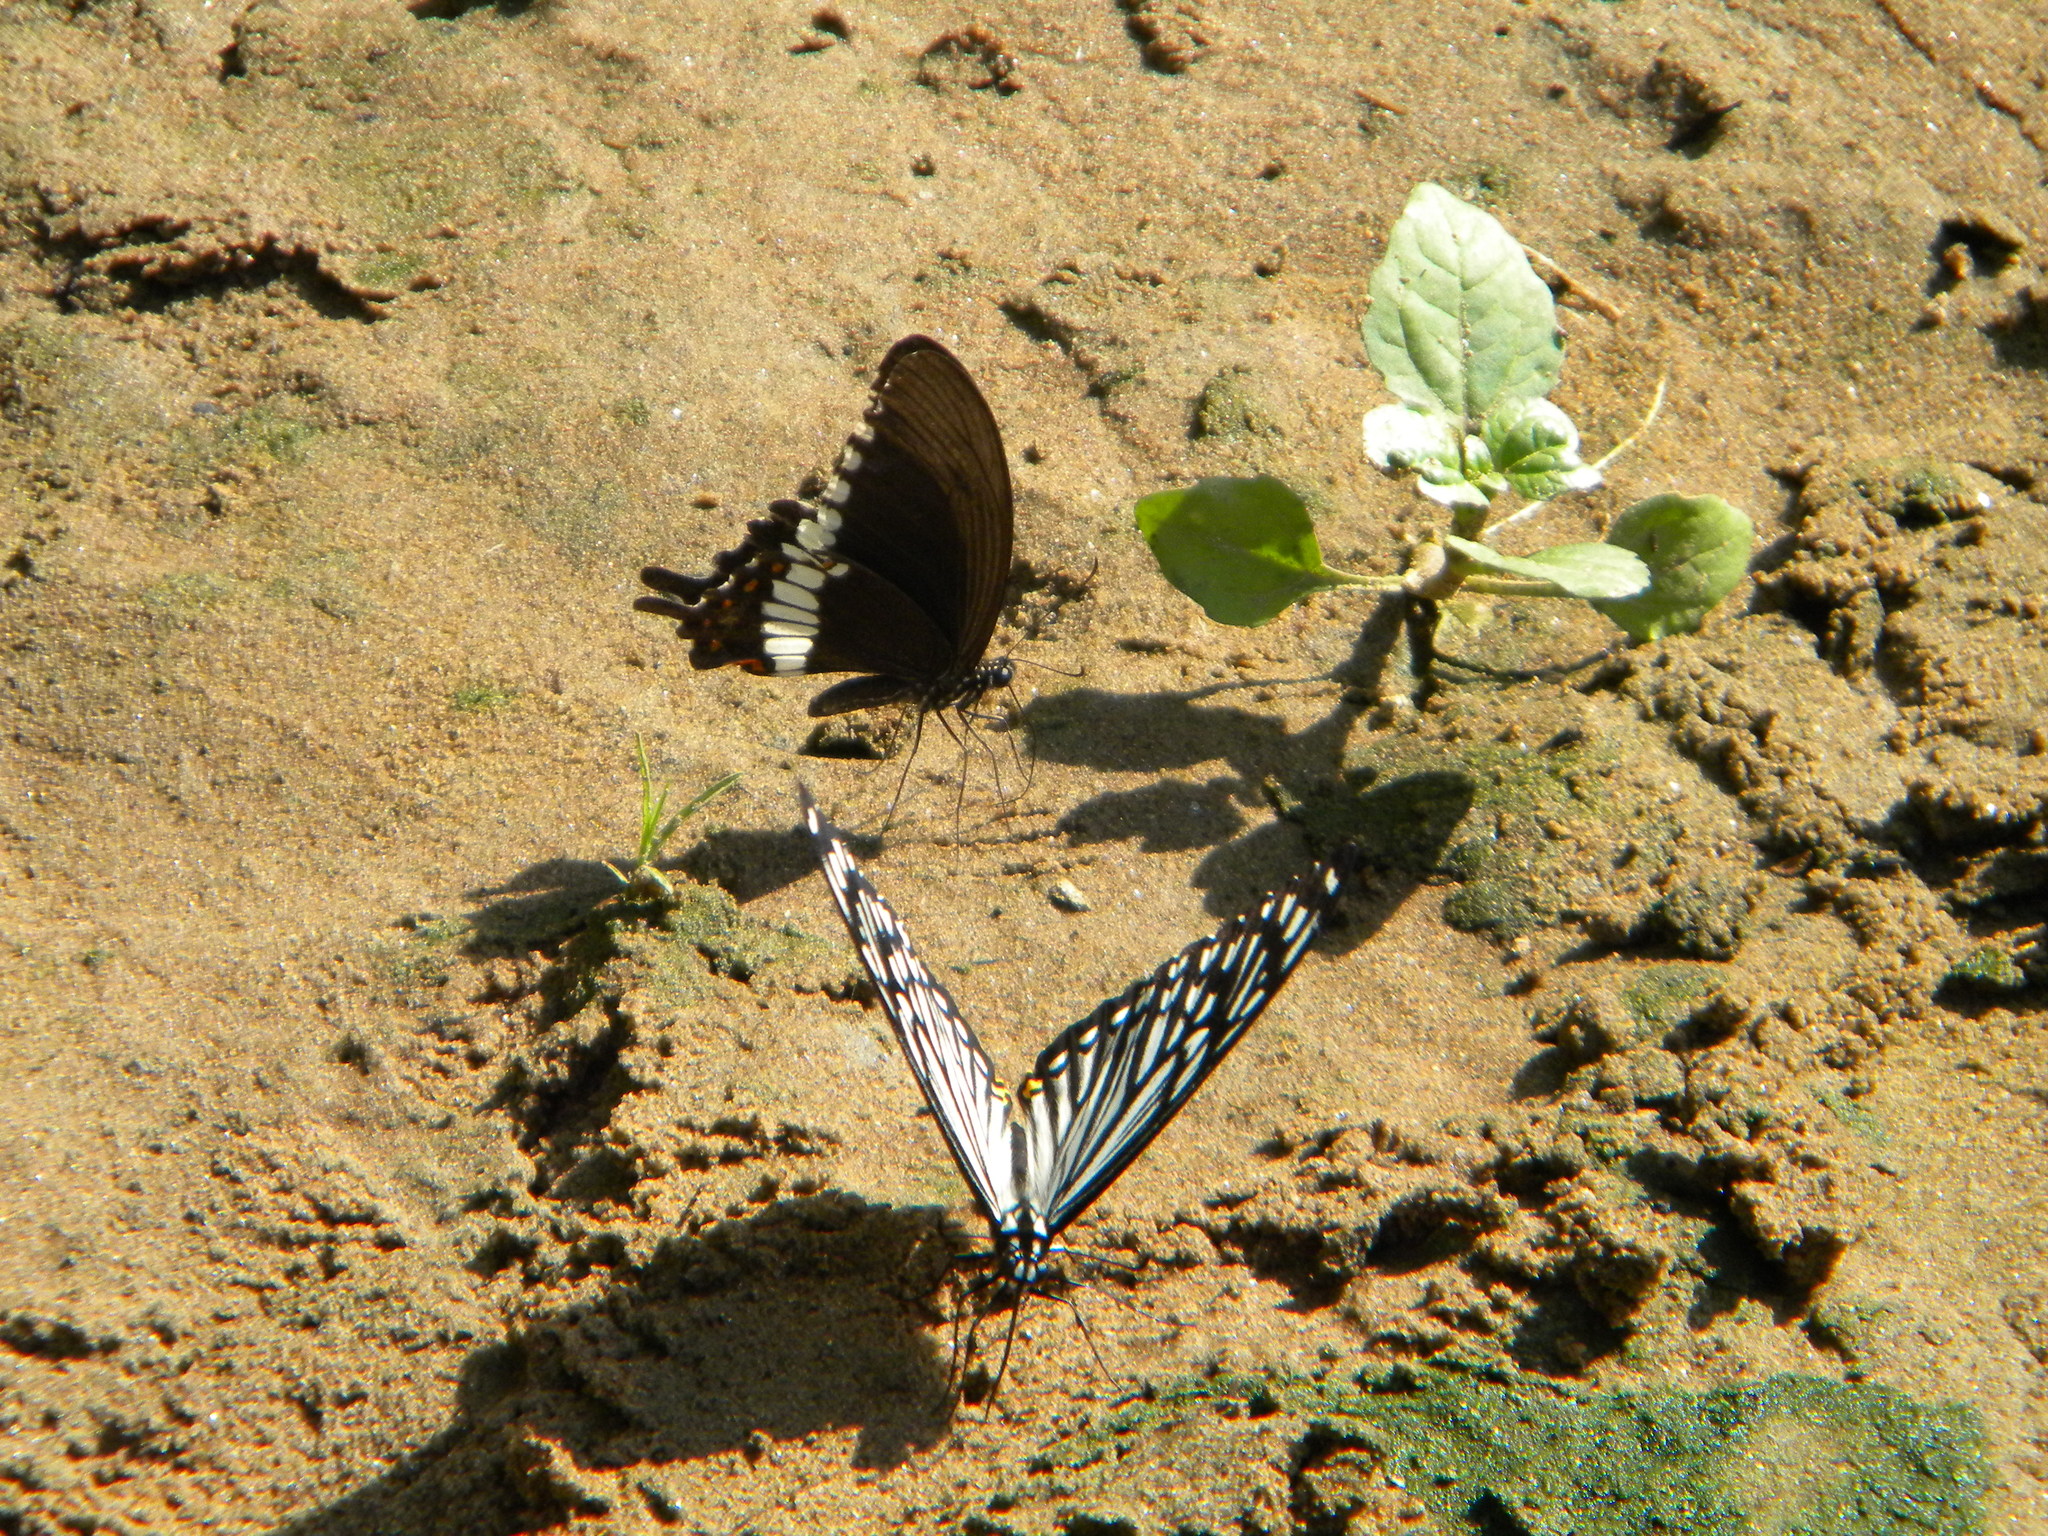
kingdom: Animalia
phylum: Arthropoda
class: Insecta
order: Lepidoptera
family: Papilionidae
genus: Papilio
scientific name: Papilio polytes
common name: Common mormon
